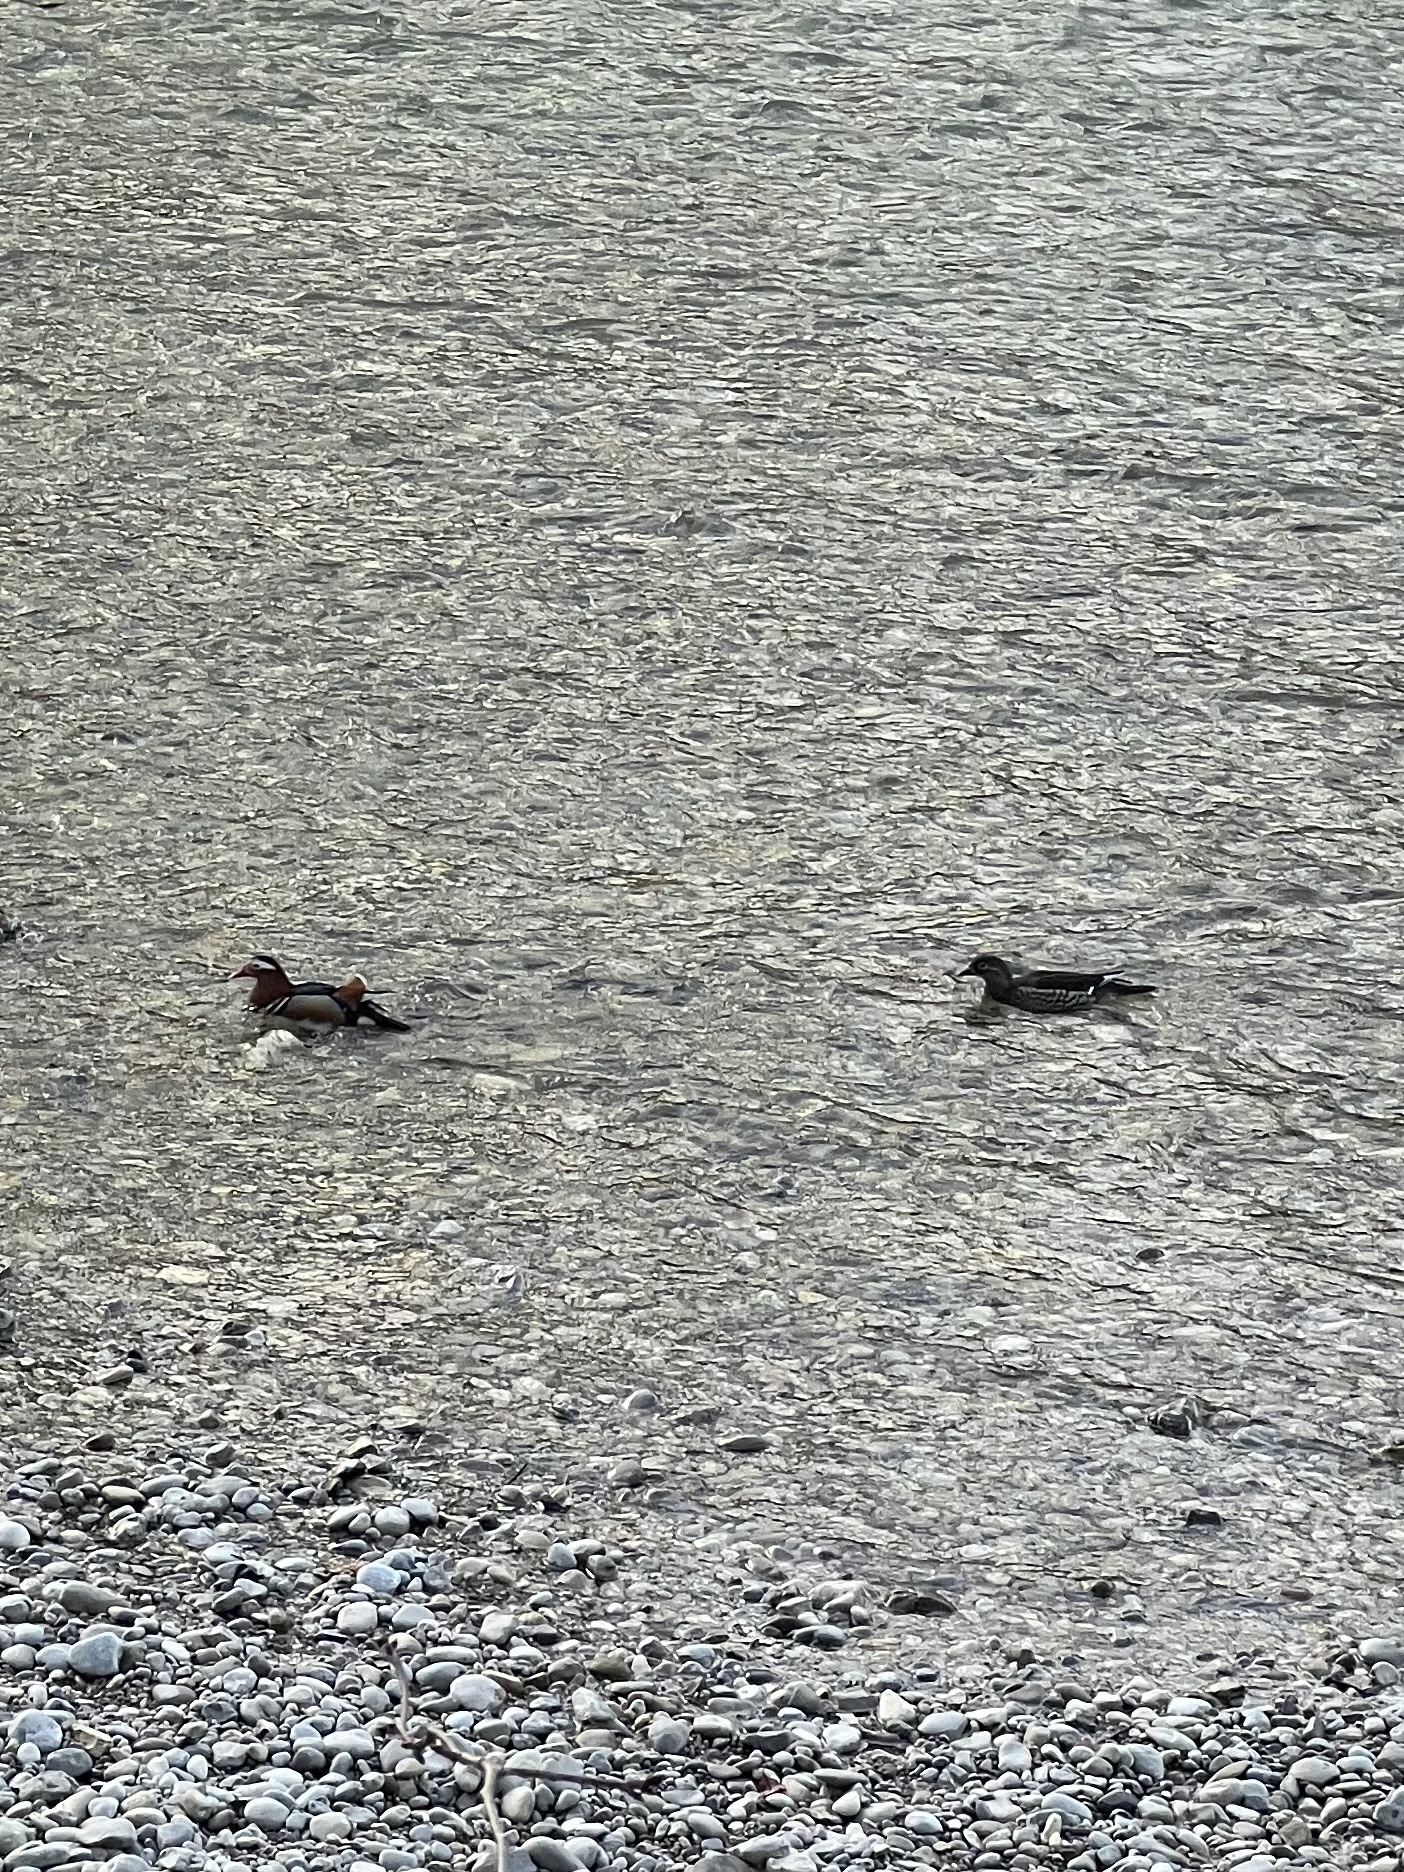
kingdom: Animalia
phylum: Chordata
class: Aves
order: Anseriformes
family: Anatidae
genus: Aix
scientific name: Aix galericulata
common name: Mandarin duck
